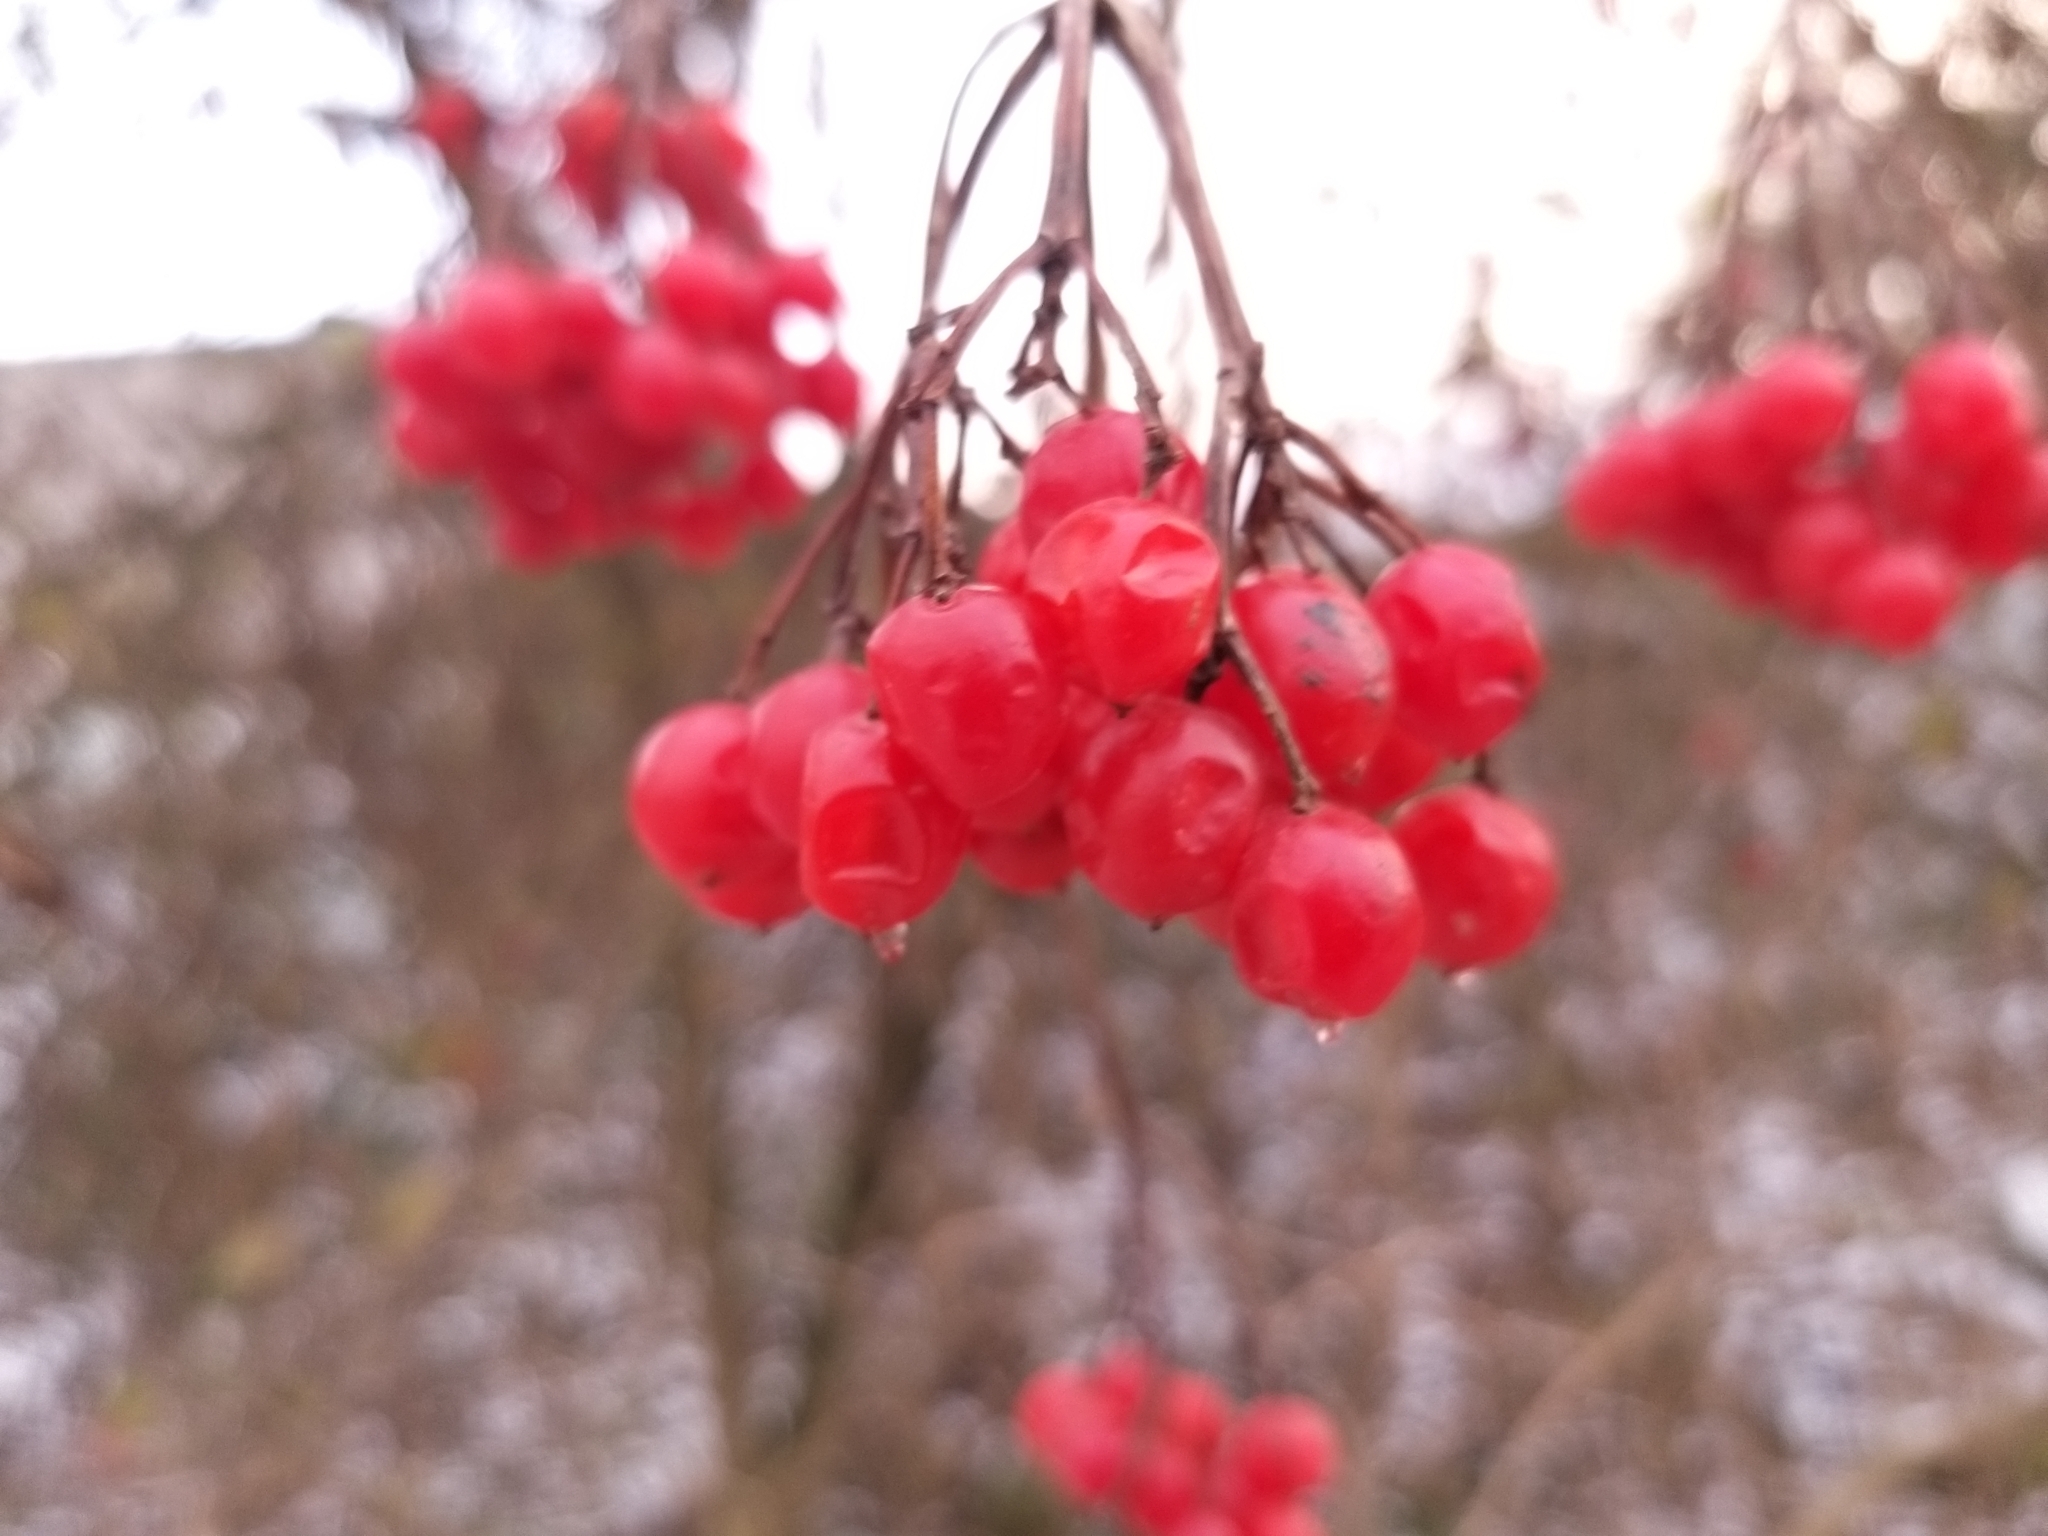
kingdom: Plantae
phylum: Tracheophyta
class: Magnoliopsida
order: Dipsacales
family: Viburnaceae
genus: Viburnum
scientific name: Viburnum opulus
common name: Guelder-rose
